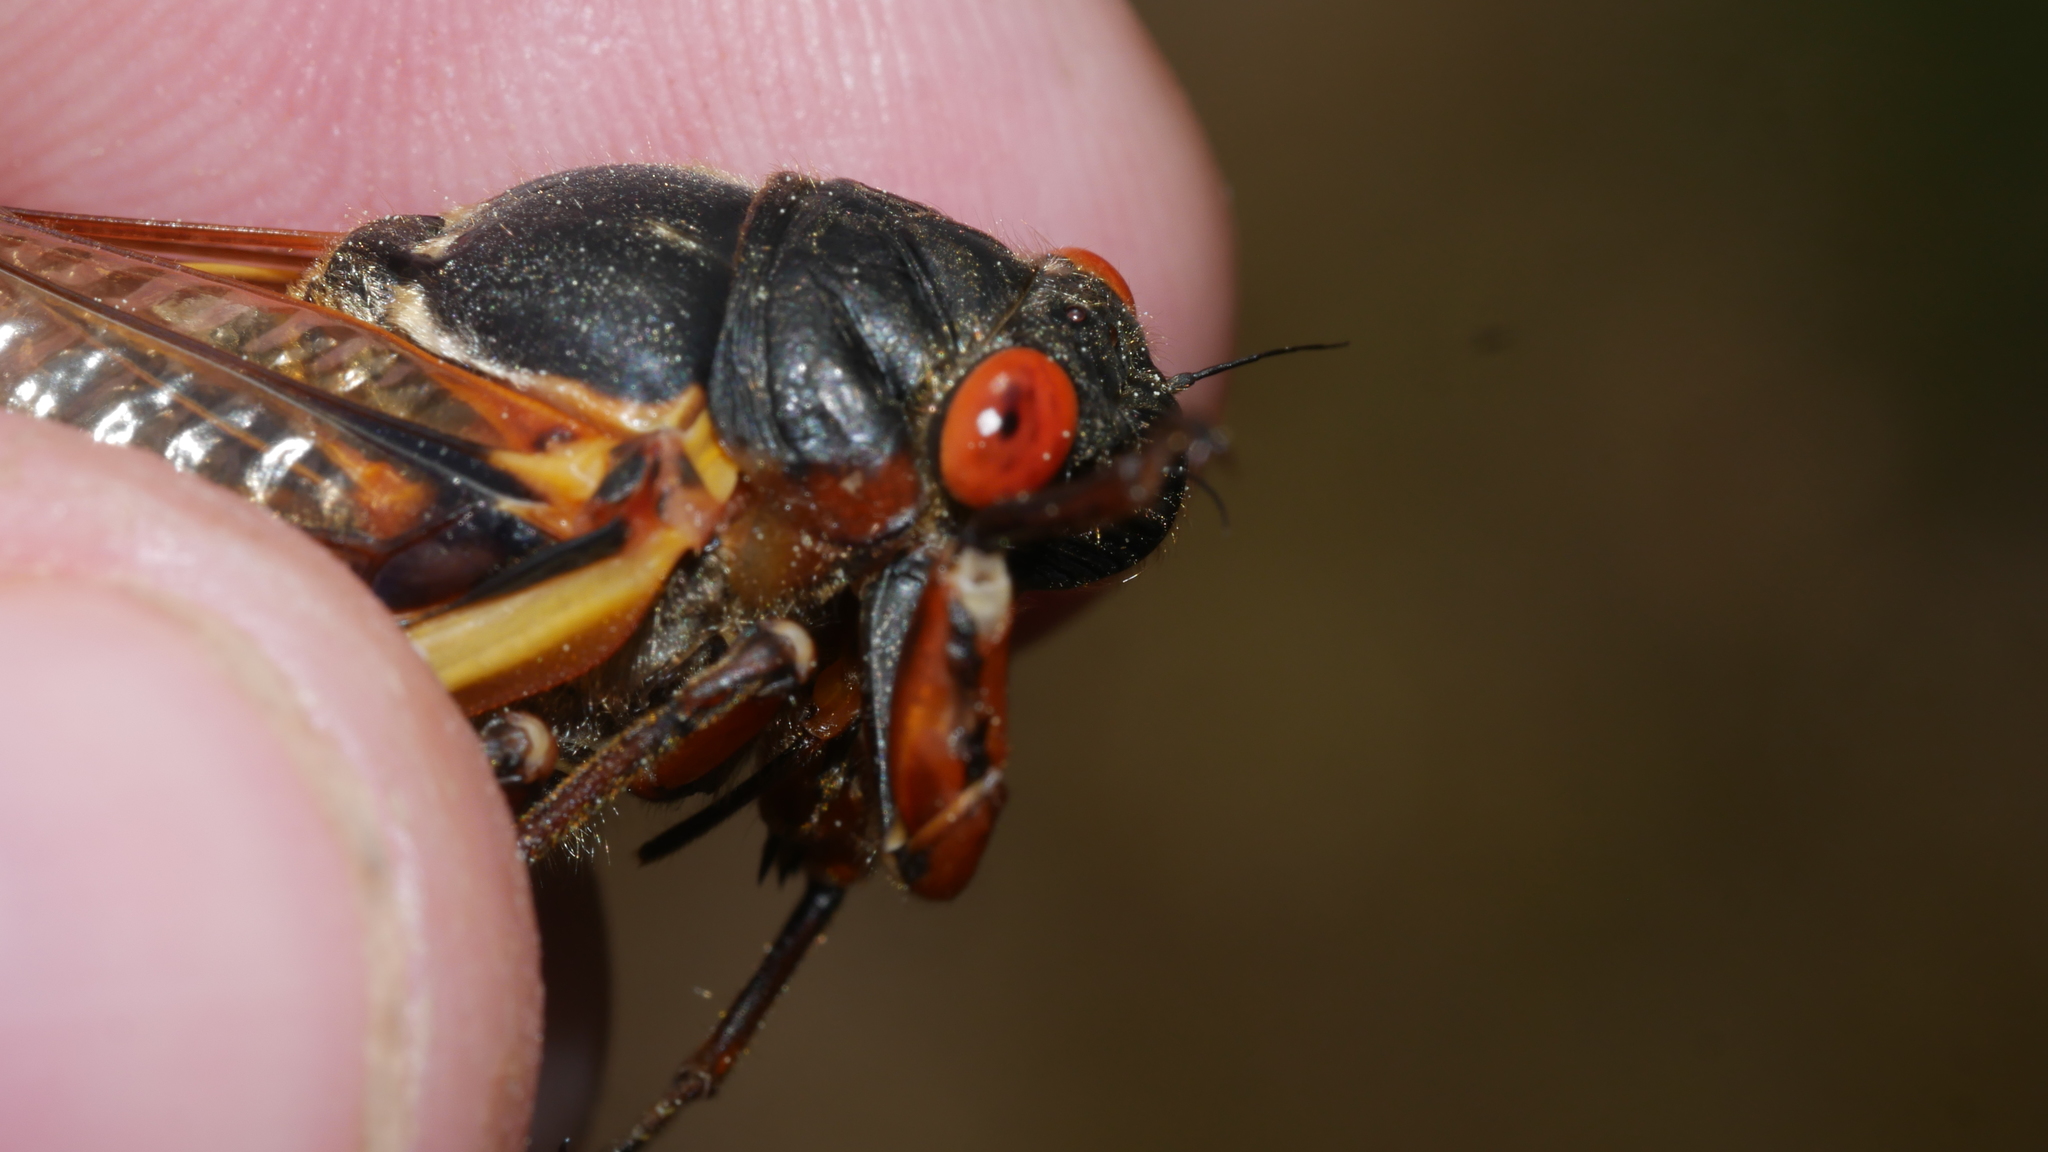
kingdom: Animalia
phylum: Arthropoda
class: Insecta
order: Hemiptera
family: Cicadidae
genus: Magicicada
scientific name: Magicicada septendecim
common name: Periodical cicada
